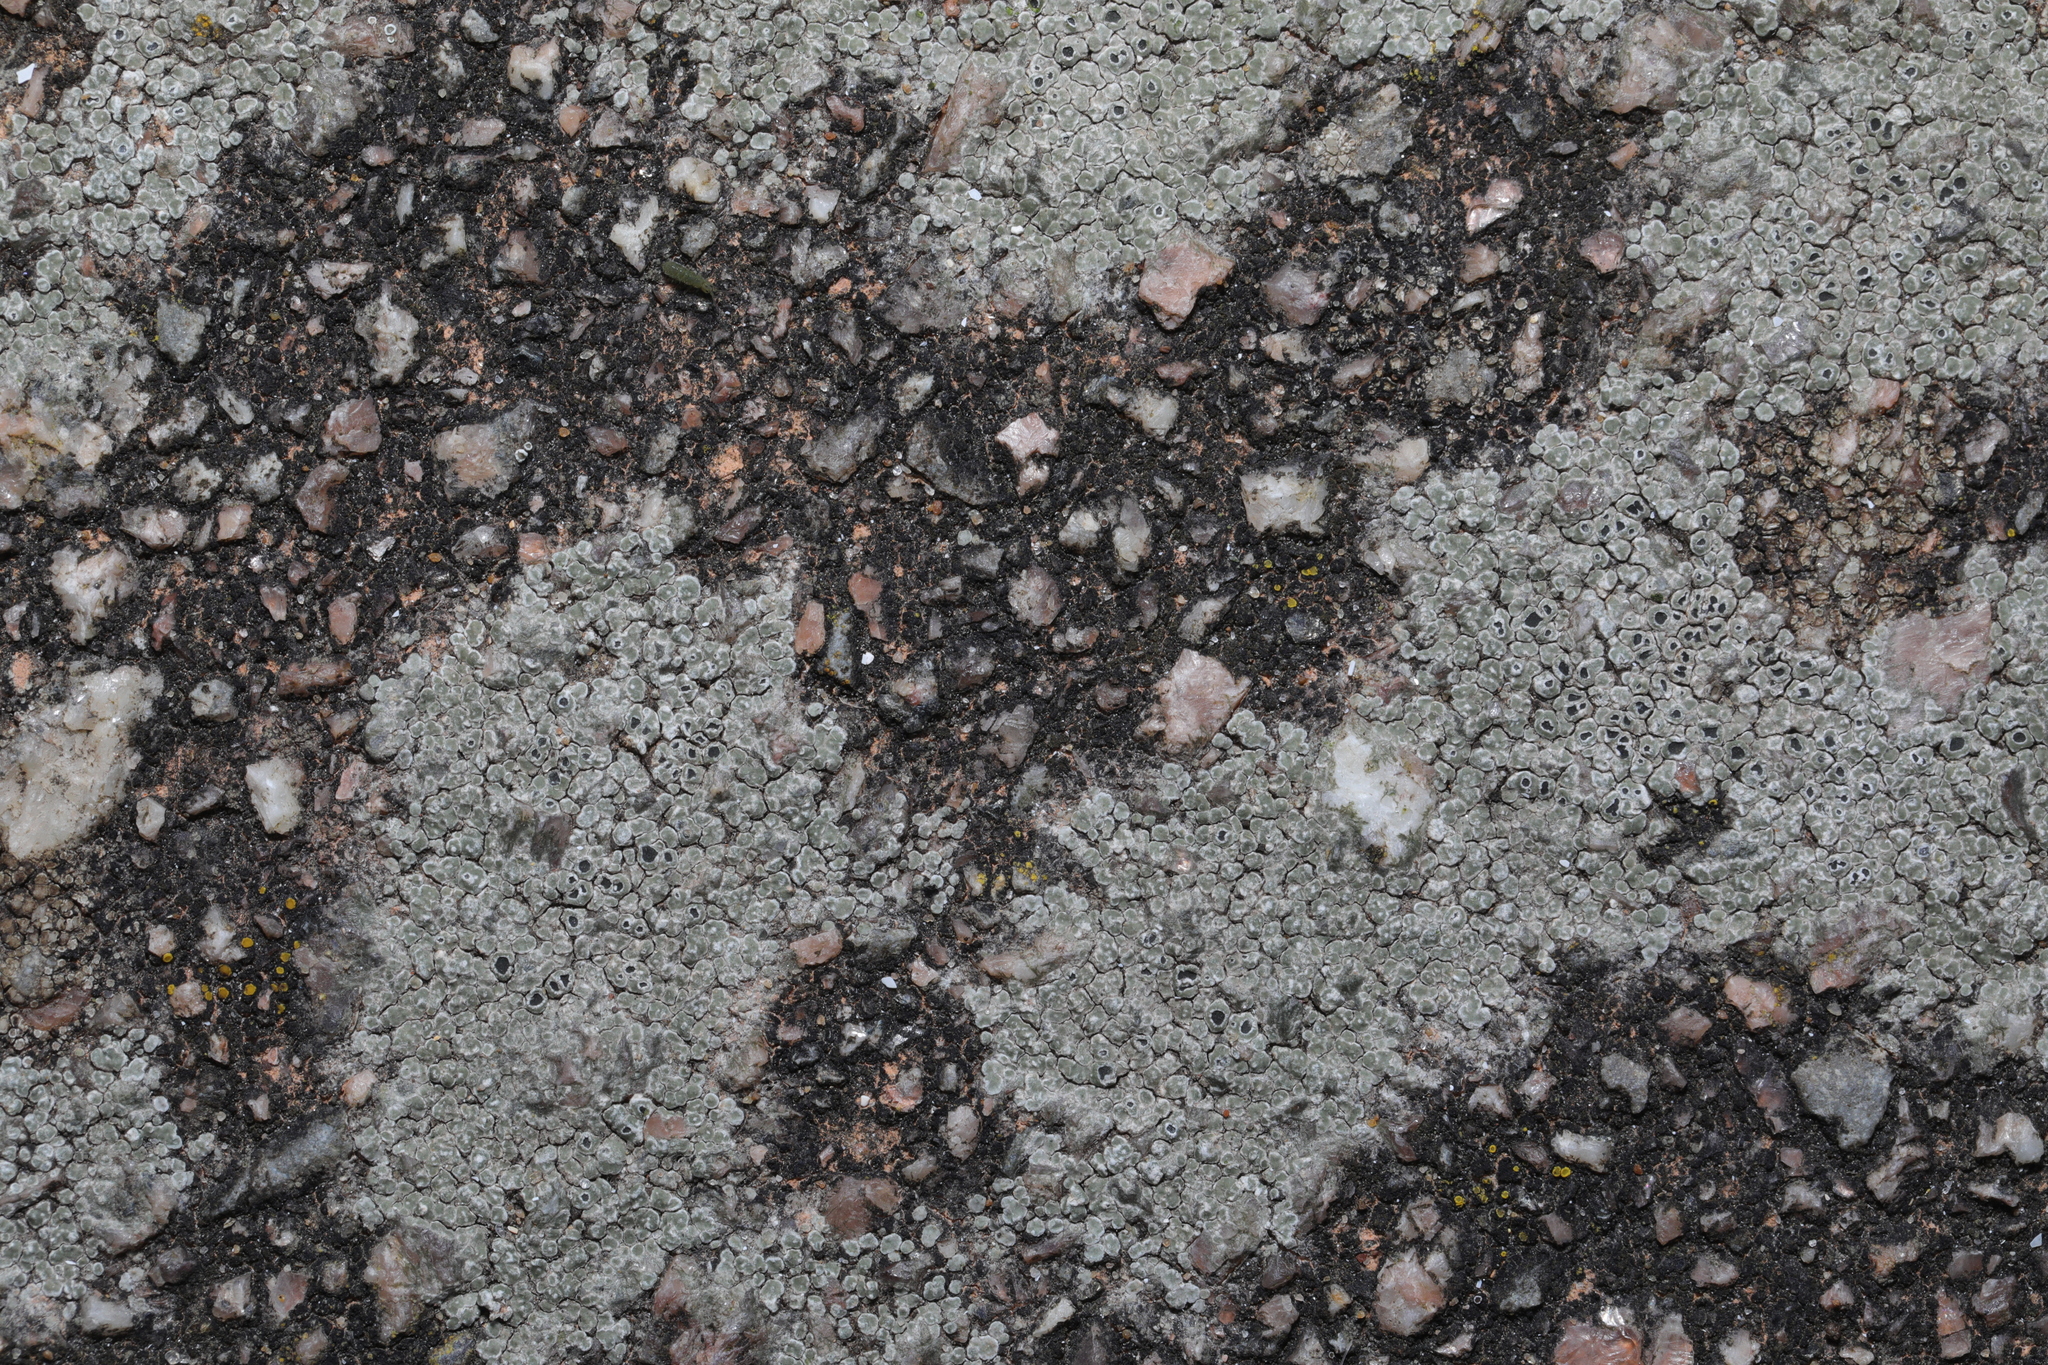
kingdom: Fungi
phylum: Ascomycota
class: Lecanoromycetes
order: Pertusariales
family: Megasporaceae
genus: Circinaria
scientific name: Circinaria contorta
